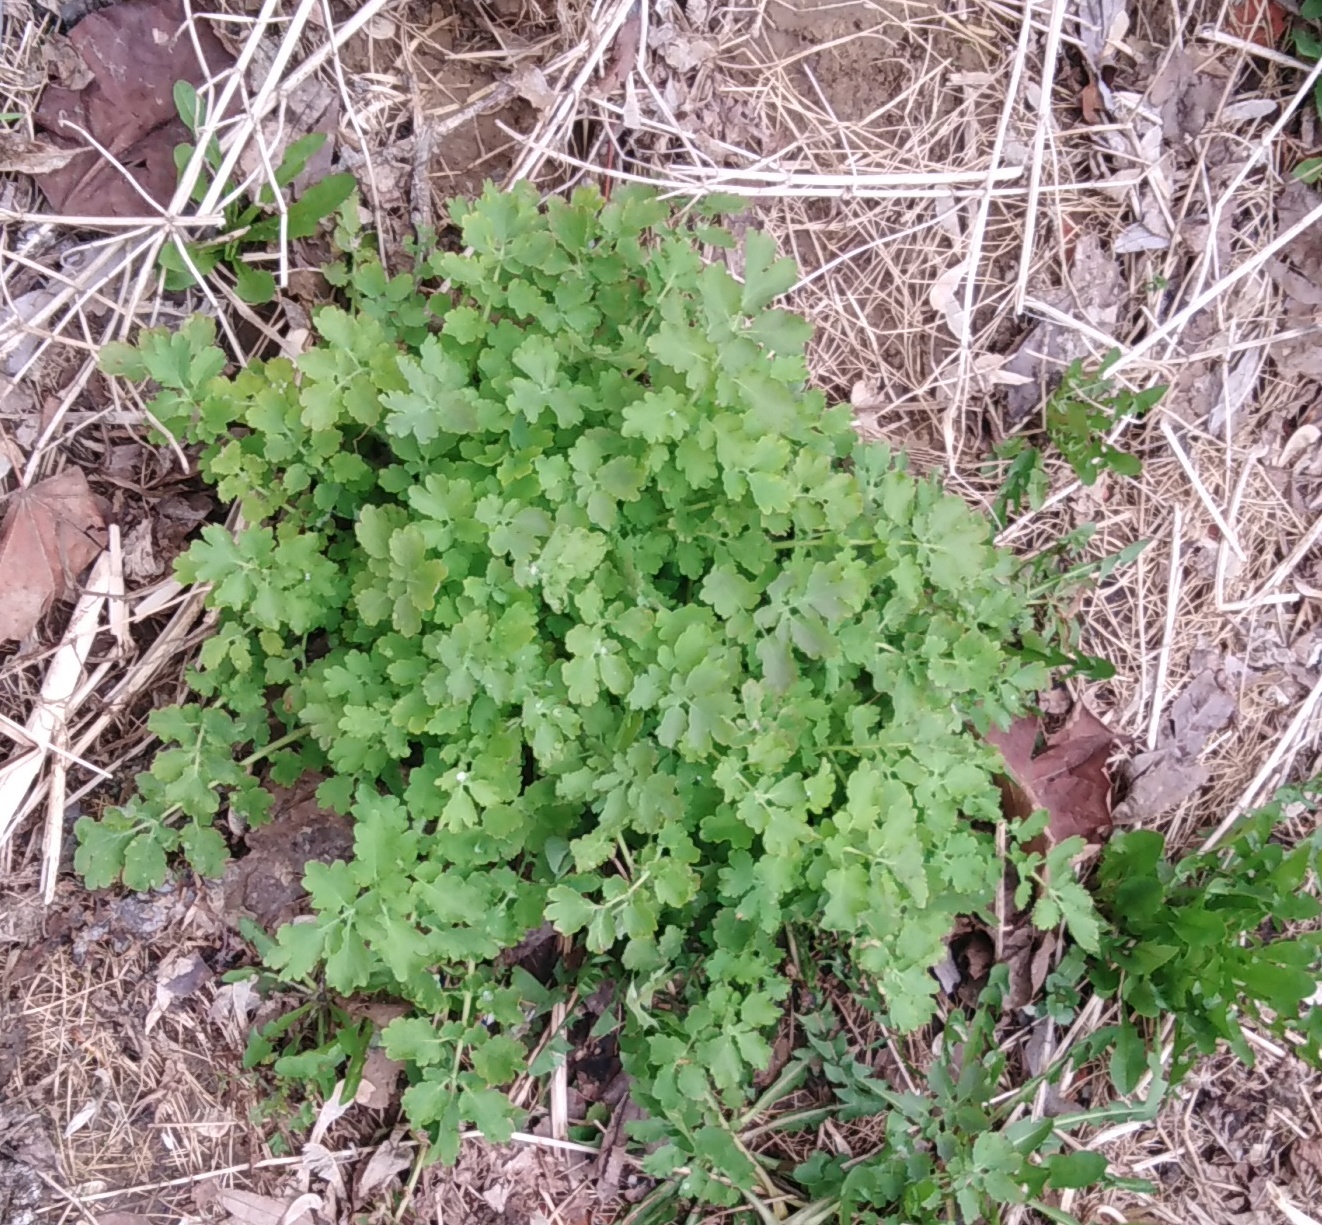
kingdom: Plantae
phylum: Tracheophyta
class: Magnoliopsida
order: Ranunculales
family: Papaveraceae
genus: Chelidonium
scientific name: Chelidonium majus
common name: Greater celandine
